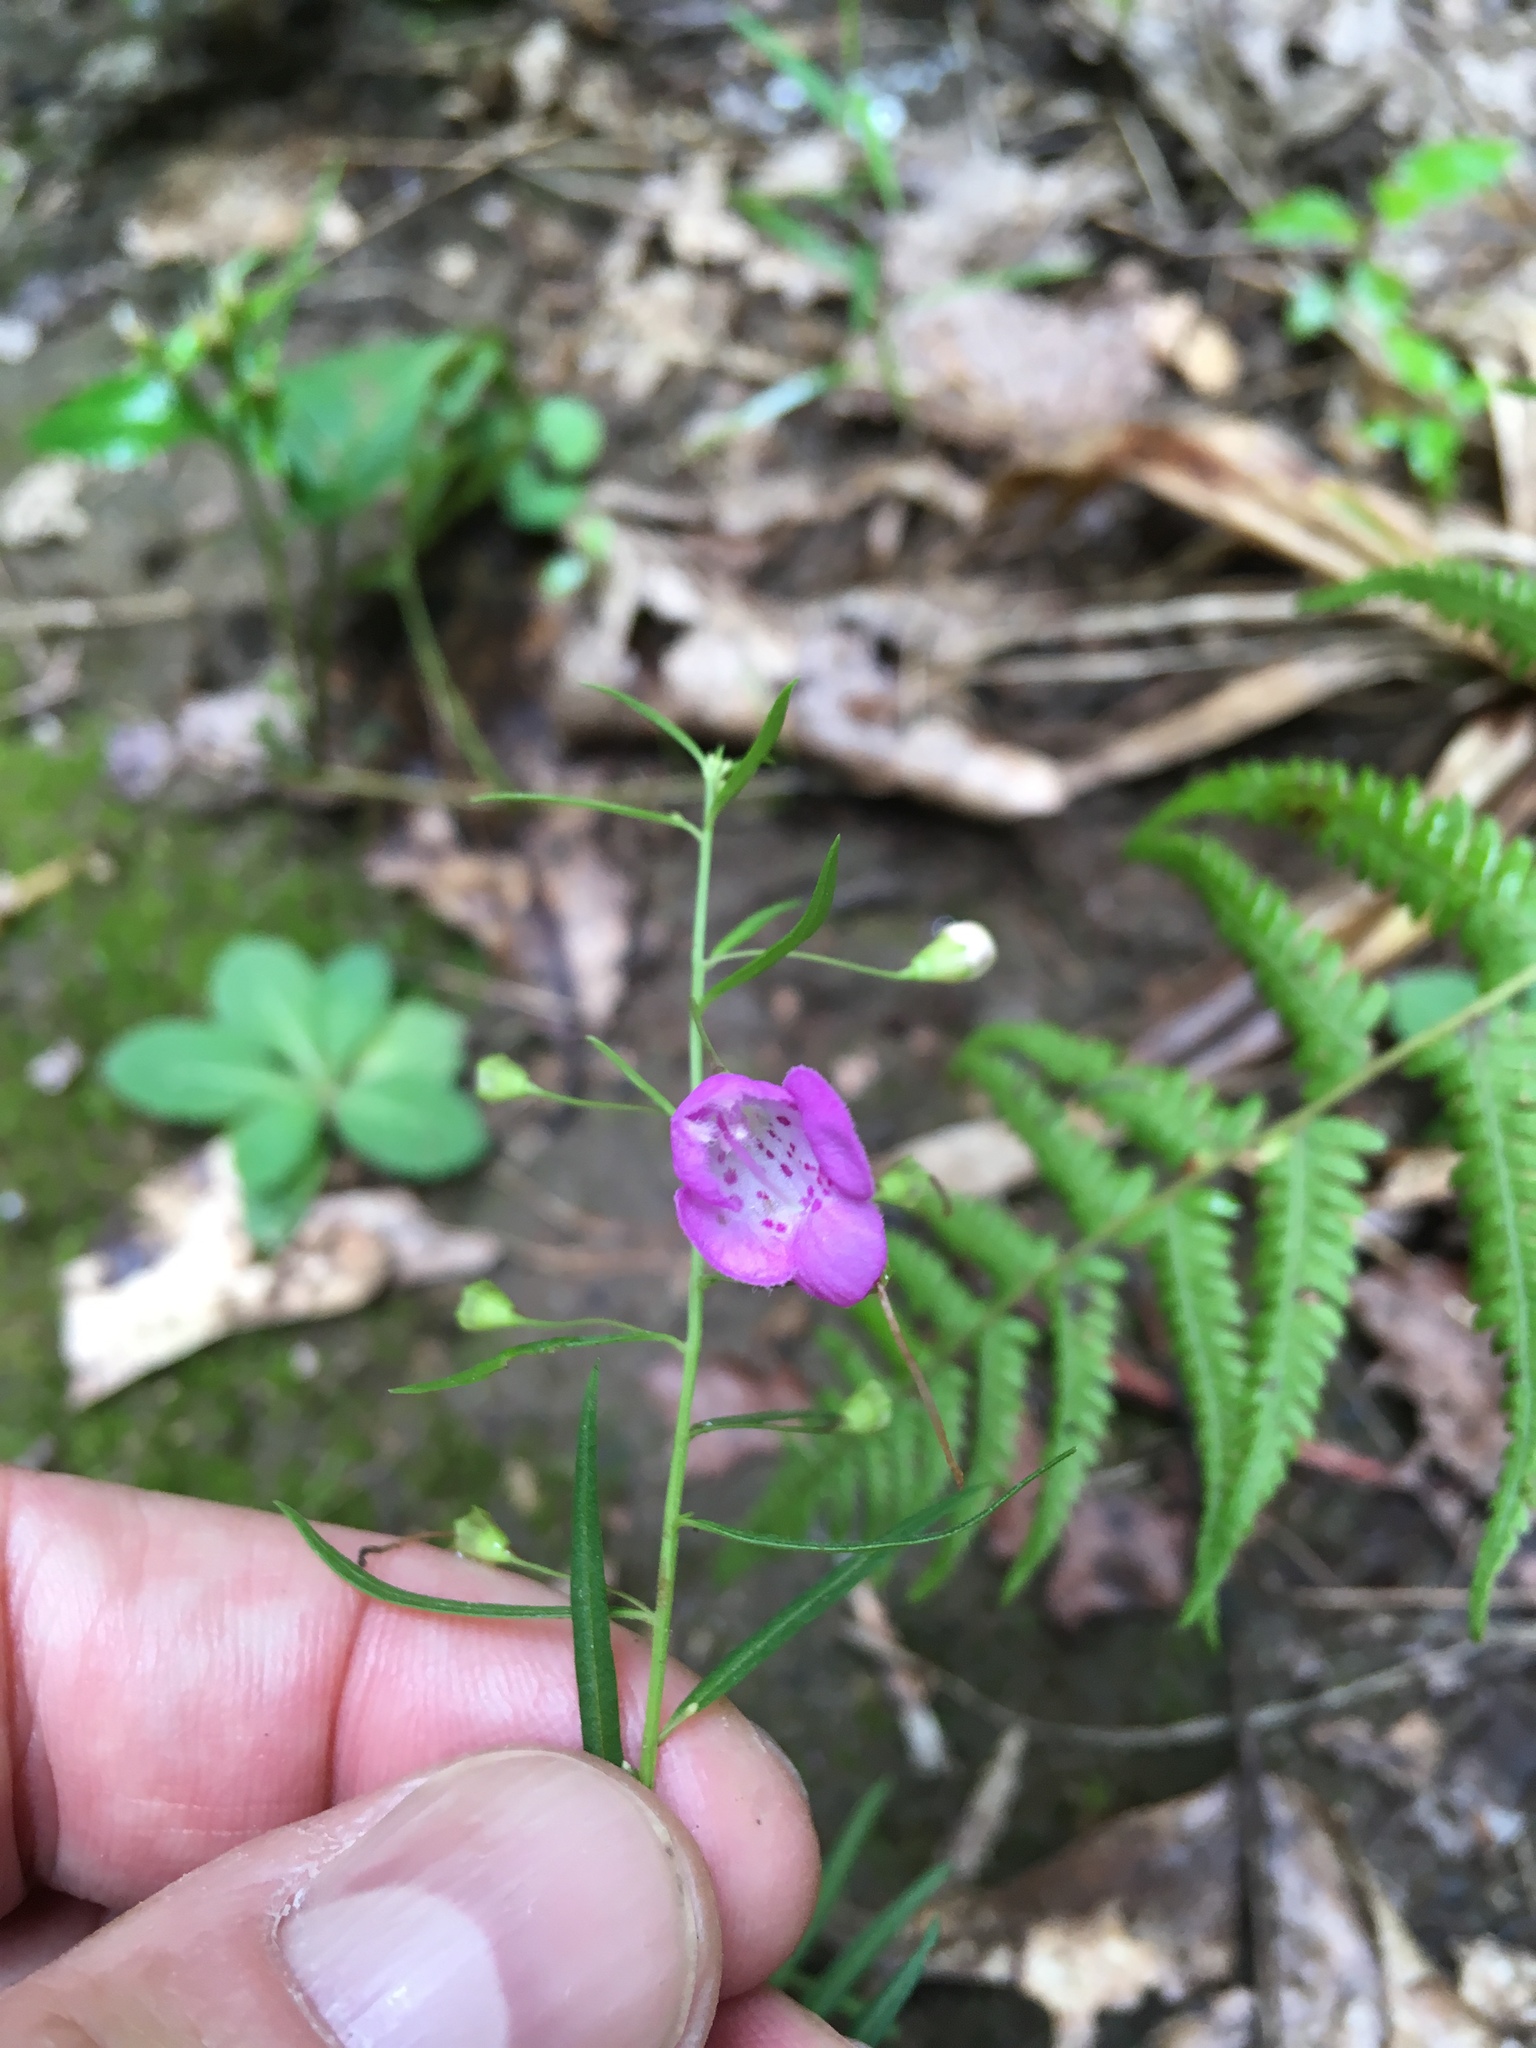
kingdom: Plantae
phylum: Tracheophyta
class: Magnoliopsida
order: Lamiales
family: Orobanchaceae
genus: Agalinis
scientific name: Agalinis tenuifolia
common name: Slender agalinis
